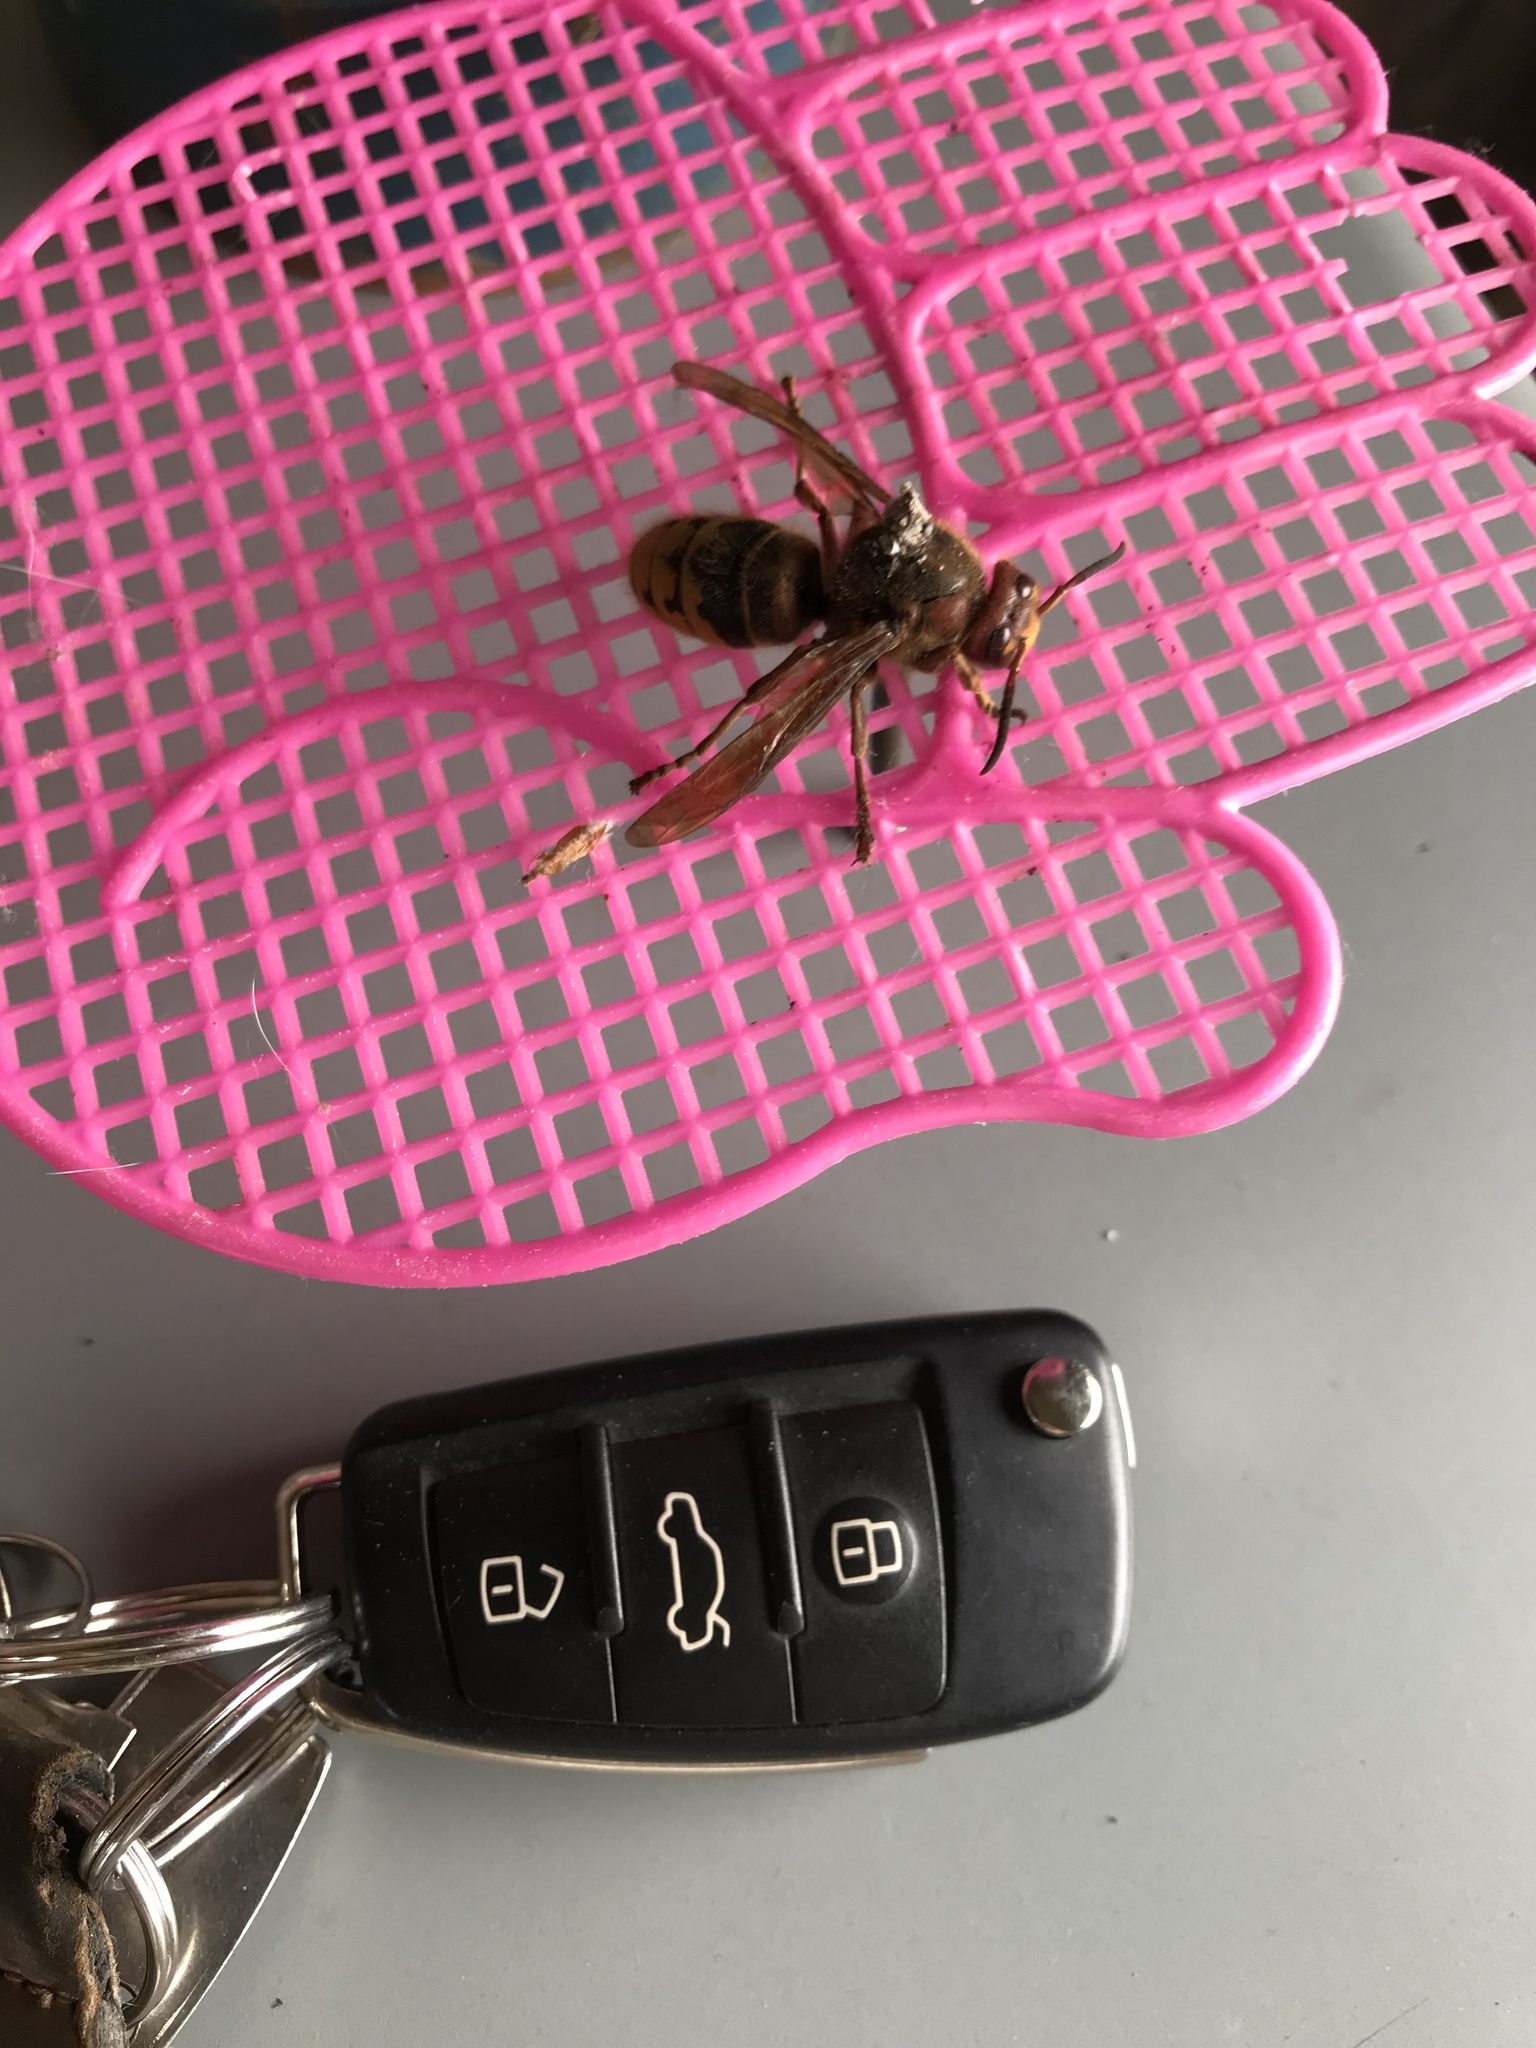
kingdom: Animalia
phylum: Arthropoda
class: Insecta
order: Hymenoptera
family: Vespidae
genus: Vespa
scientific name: Vespa crabro
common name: Hornet
